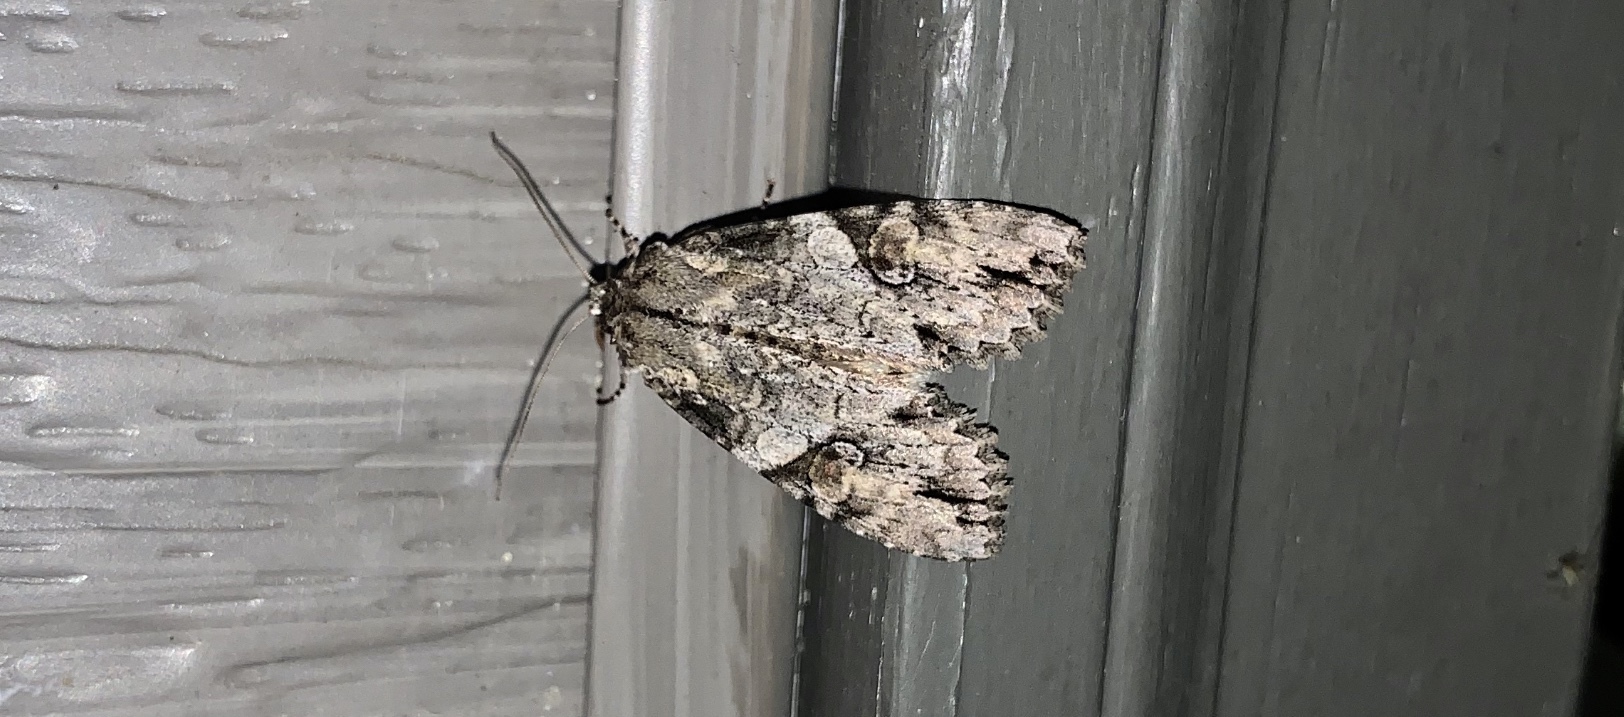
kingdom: Animalia
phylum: Arthropoda
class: Insecta
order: Lepidoptera
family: Noctuidae
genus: Achatia
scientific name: Achatia latex
